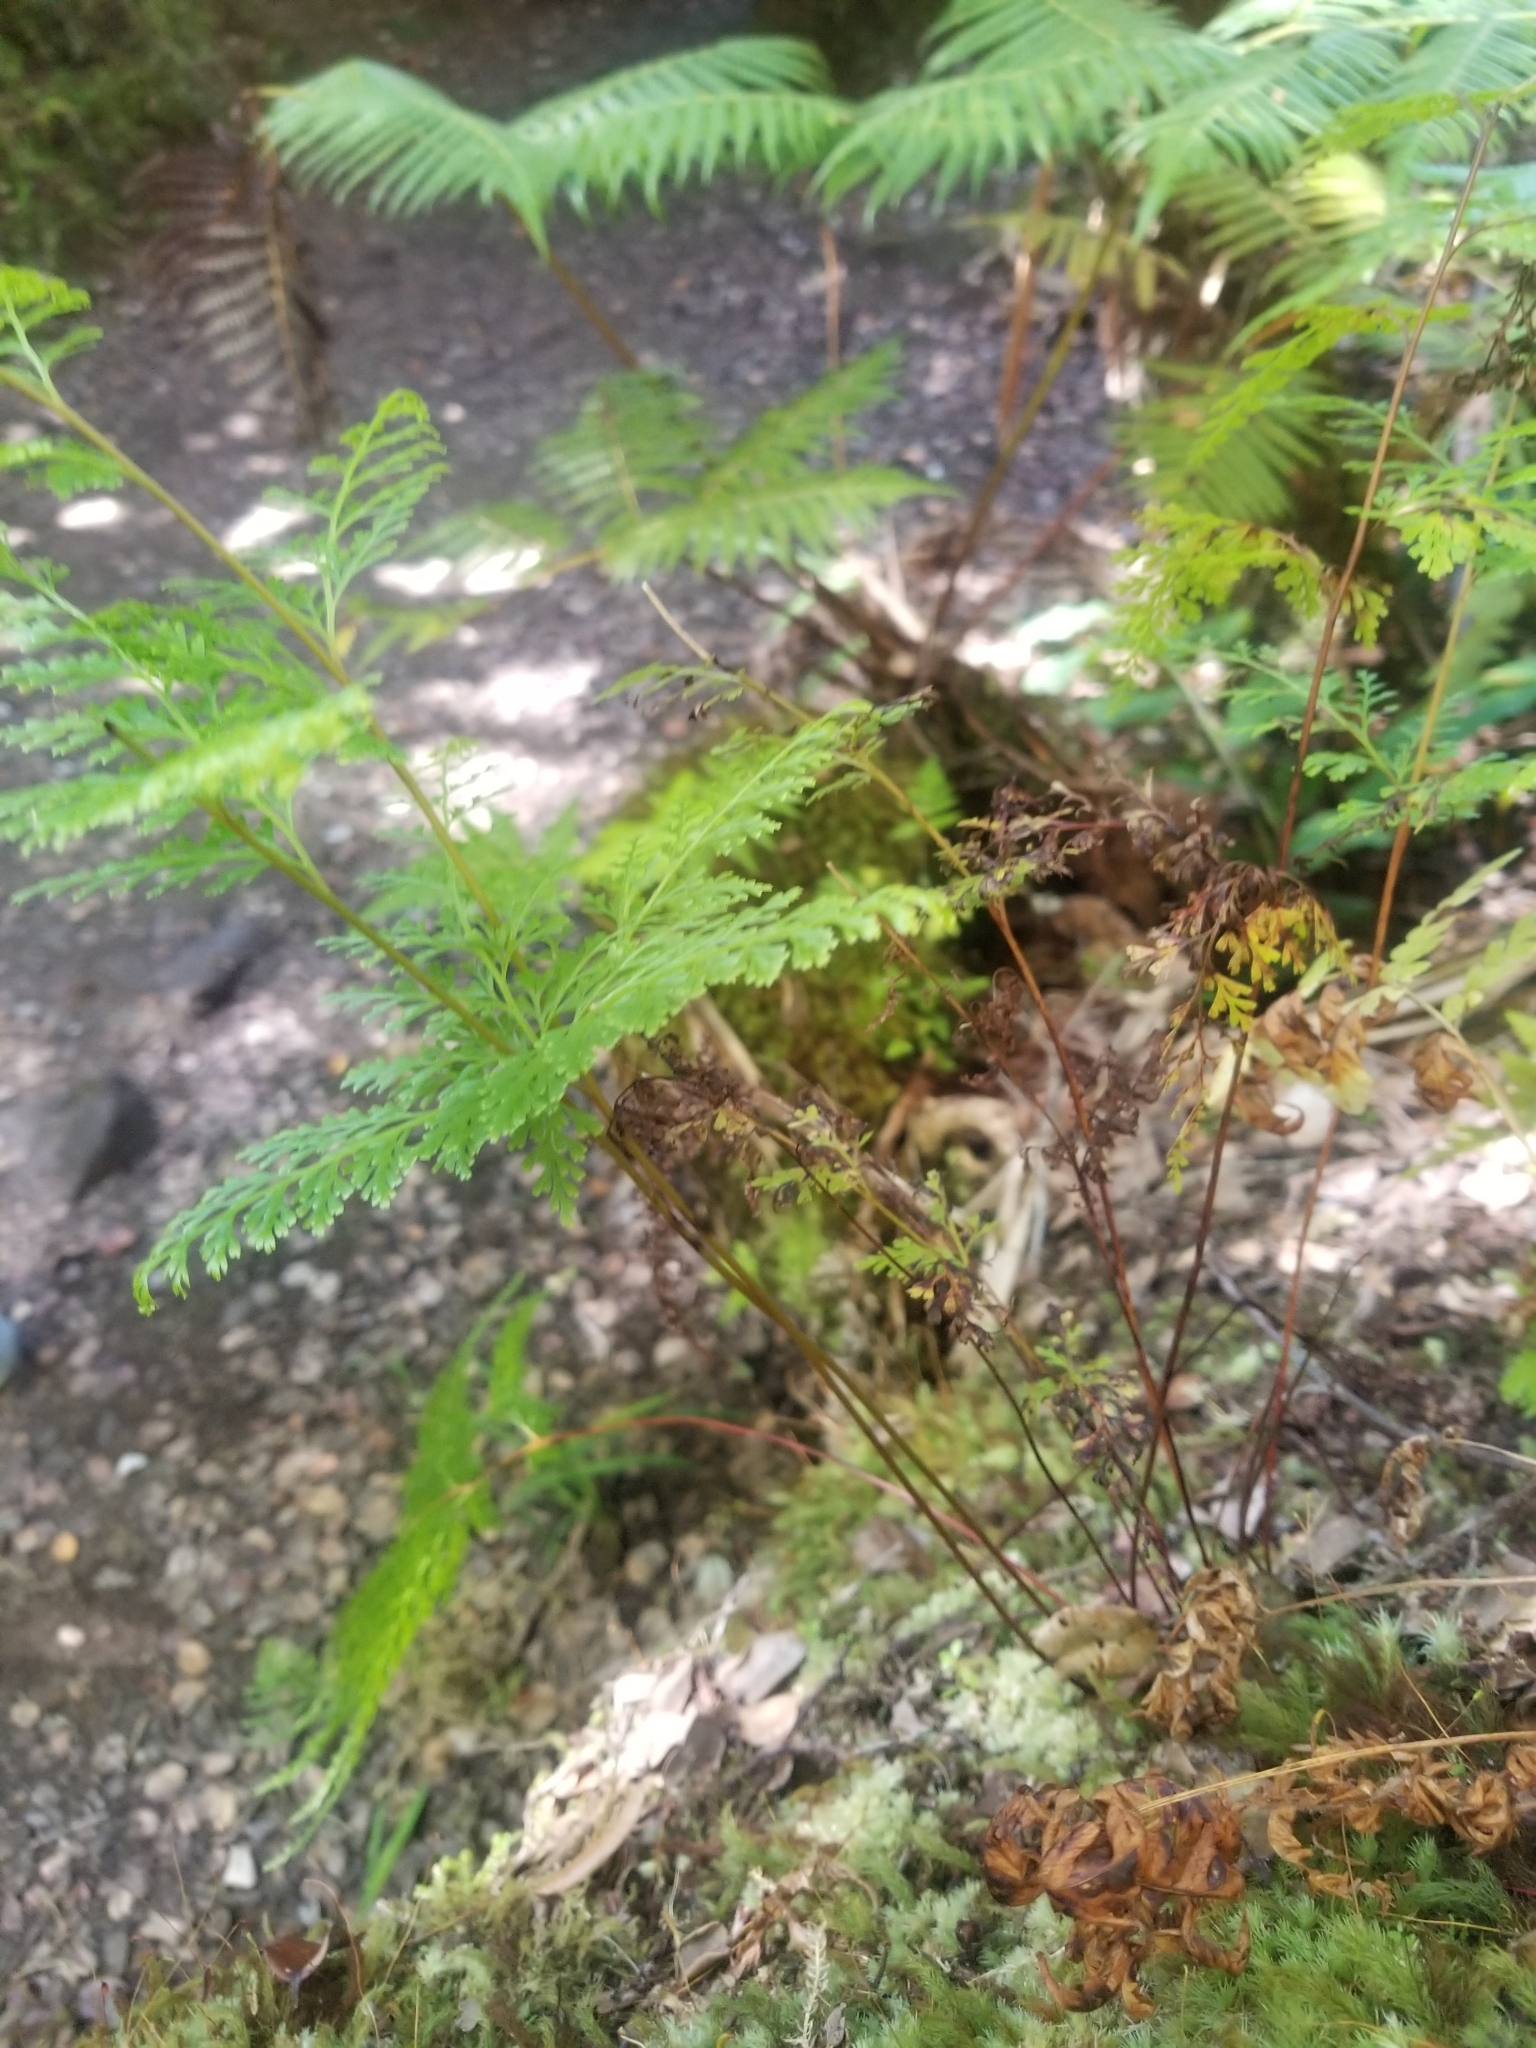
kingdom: Plantae
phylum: Tracheophyta
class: Polypodiopsida
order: Polypodiales
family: Lindsaeaceae
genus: Odontosoria
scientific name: Odontosoria chinensis
